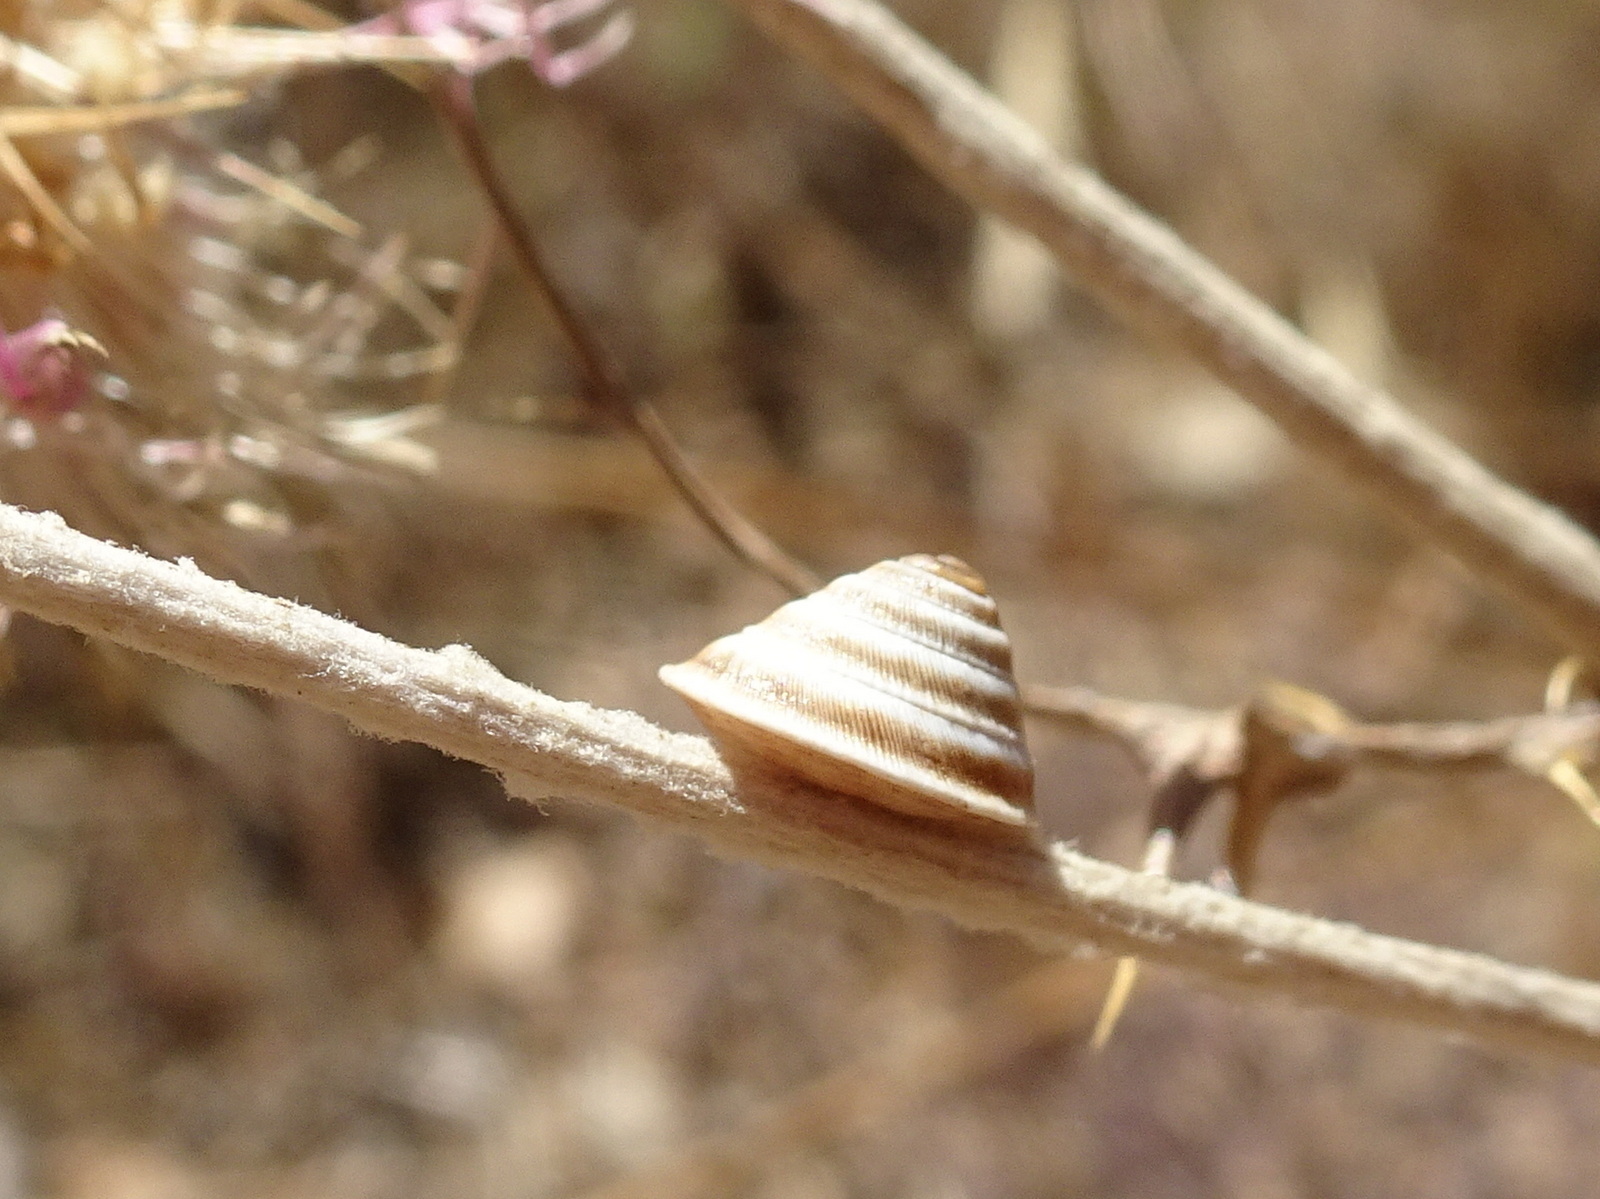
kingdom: Animalia
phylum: Mollusca
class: Gastropoda
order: Stylommatophora
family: Geomitridae
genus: Trochoidea
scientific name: Trochoidea elegans
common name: Elegant helicellid
